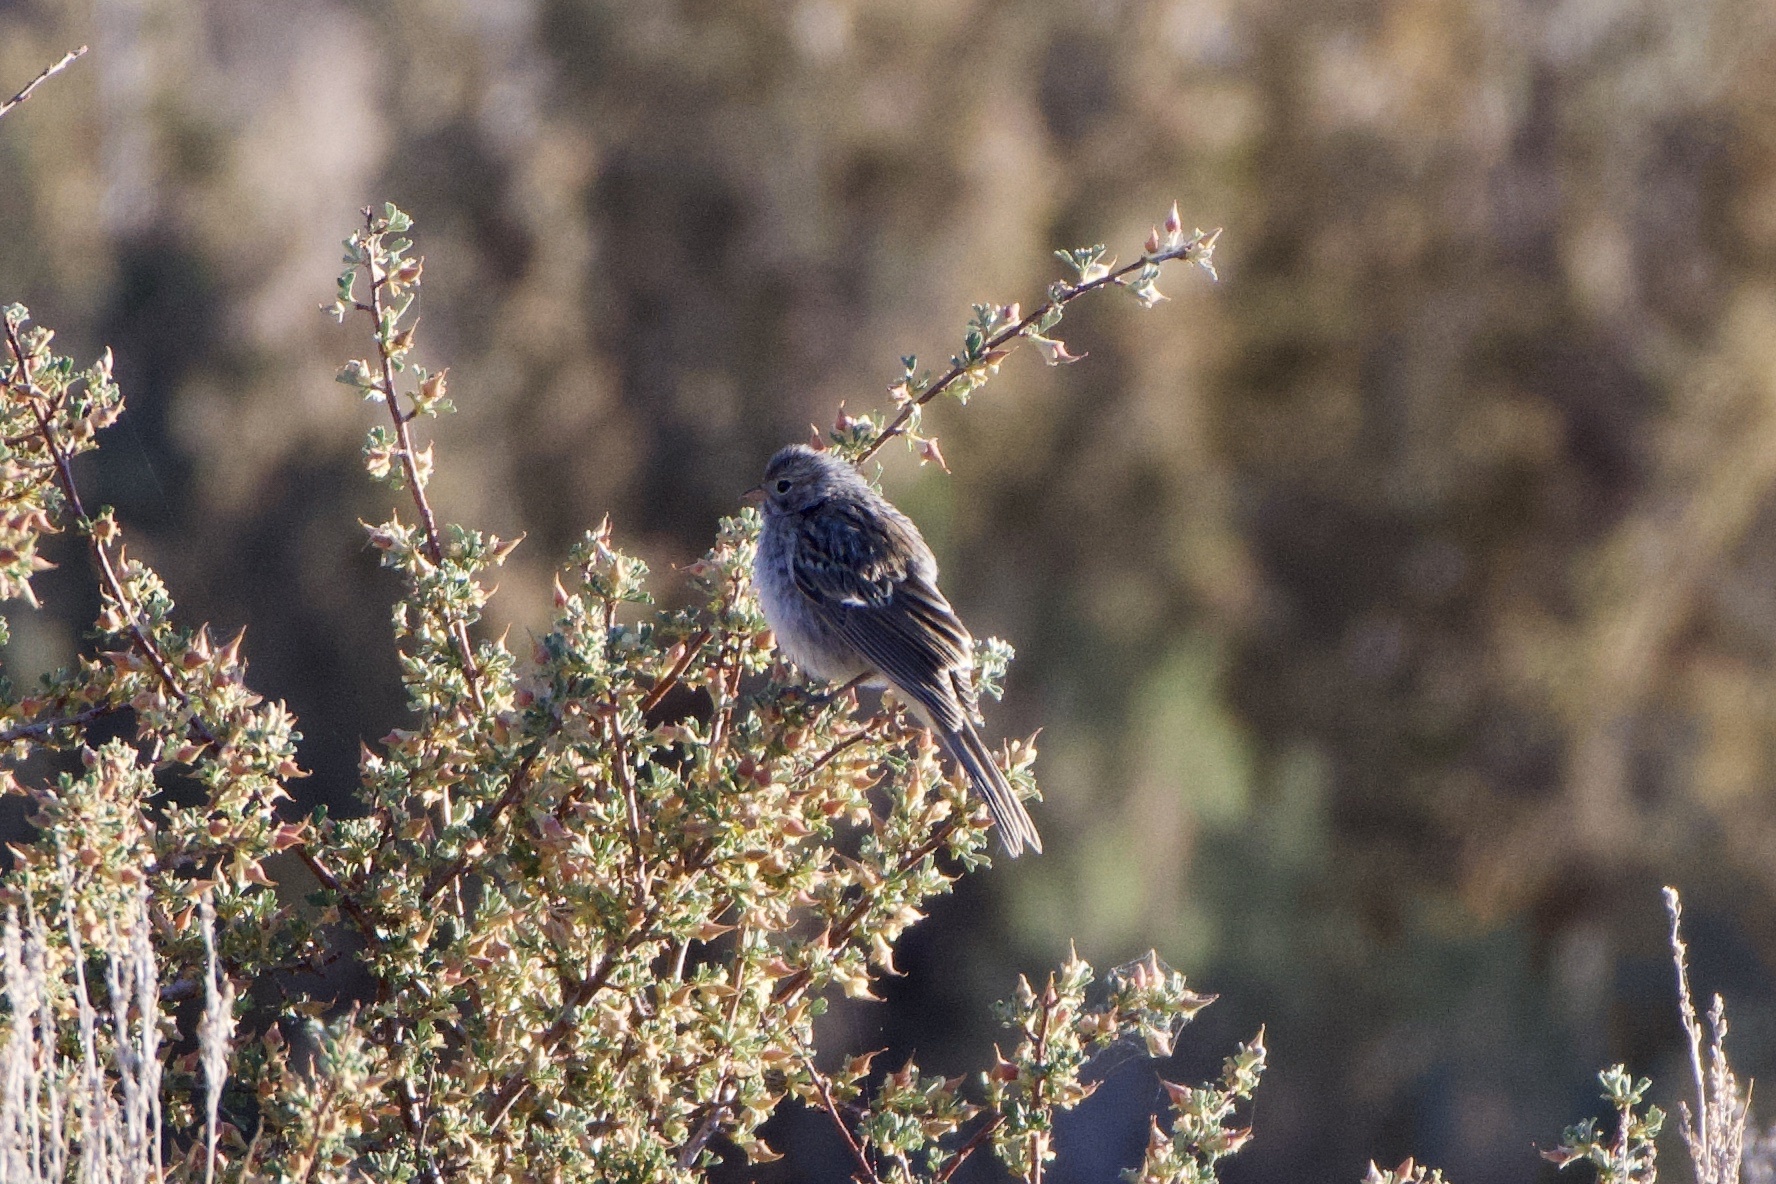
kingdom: Animalia
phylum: Chordata
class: Aves
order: Passeriformes
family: Passerellidae
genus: Spizella
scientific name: Spizella breweri
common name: Brewer's sparrow
